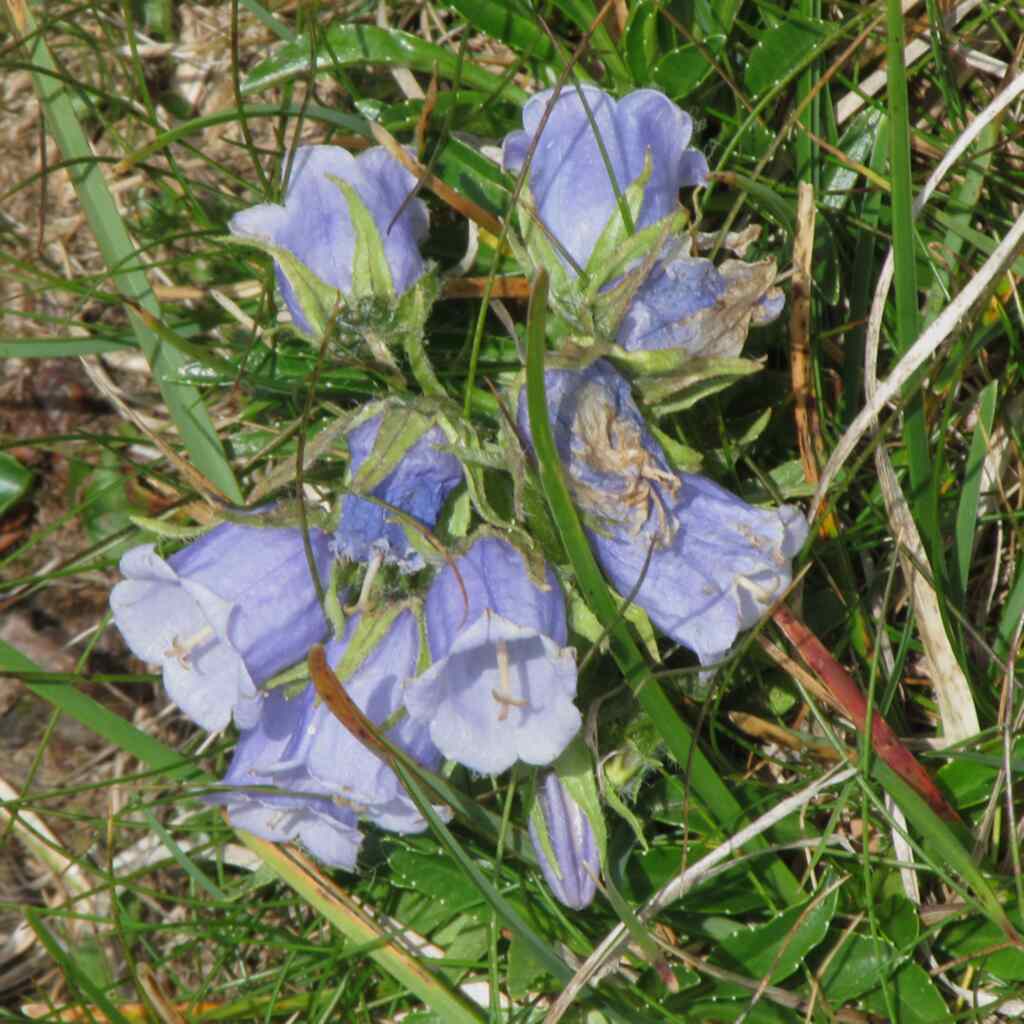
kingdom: Plantae
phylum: Tracheophyta
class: Magnoliopsida
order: Asterales
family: Campanulaceae
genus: Campanula
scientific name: Campanula alpina
